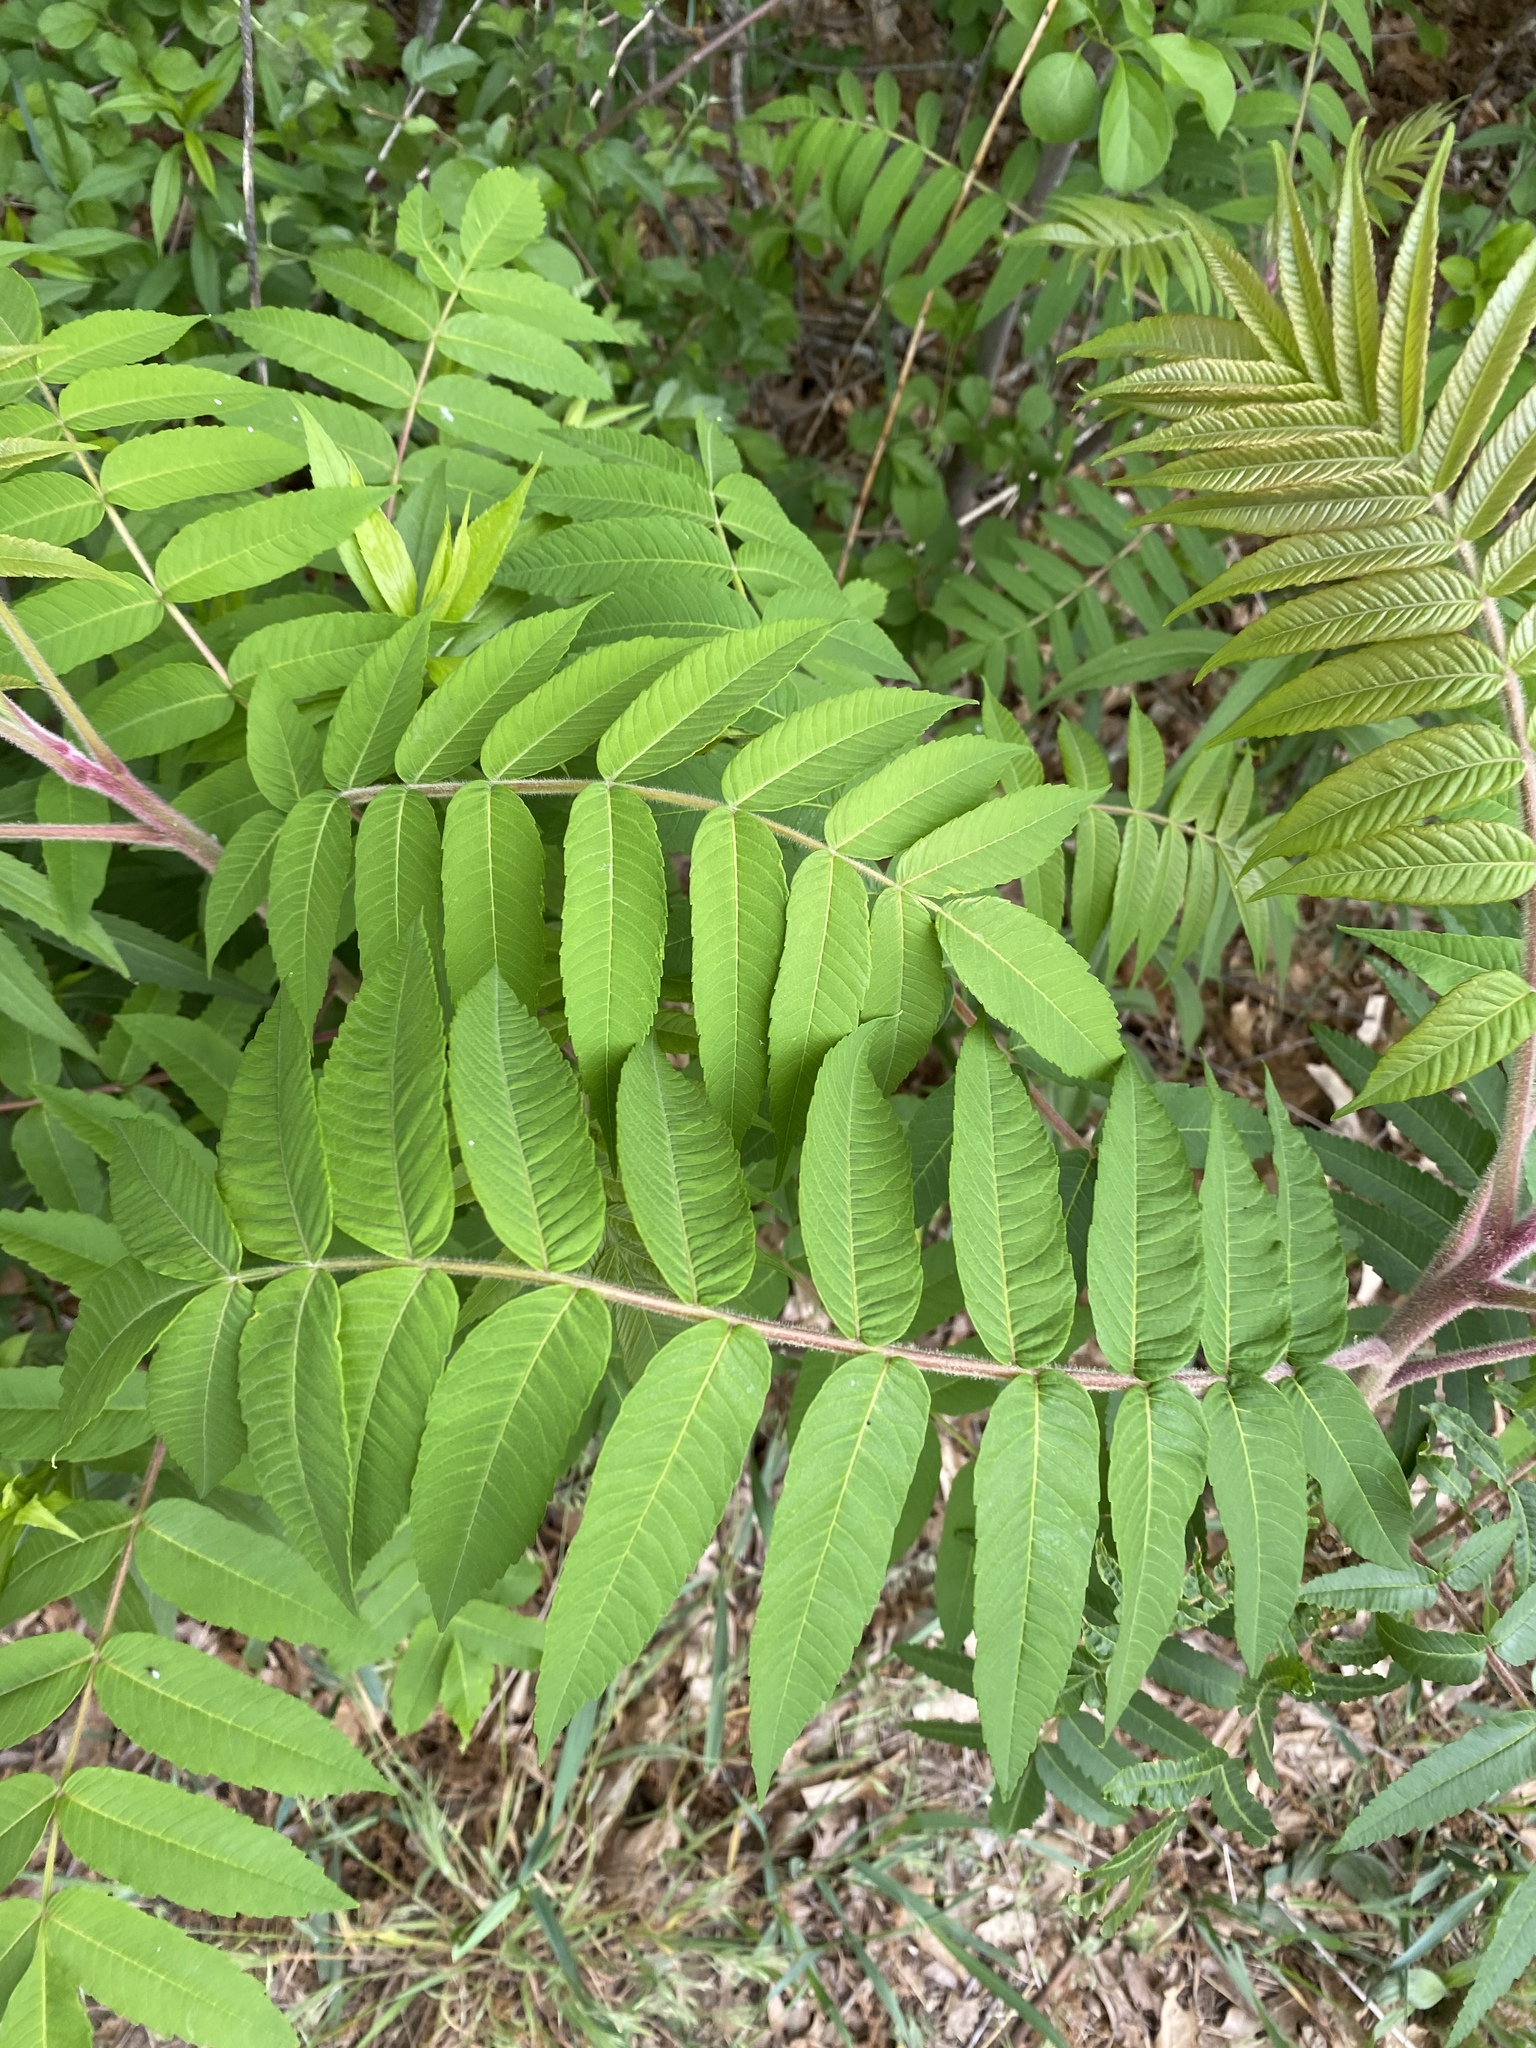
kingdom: Plantae
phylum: Tracheophyta
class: Magnoliopsida
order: Sapindales
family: Anacardiaceae
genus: Rhus
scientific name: Rhus typhina
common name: Staghorn sumac
